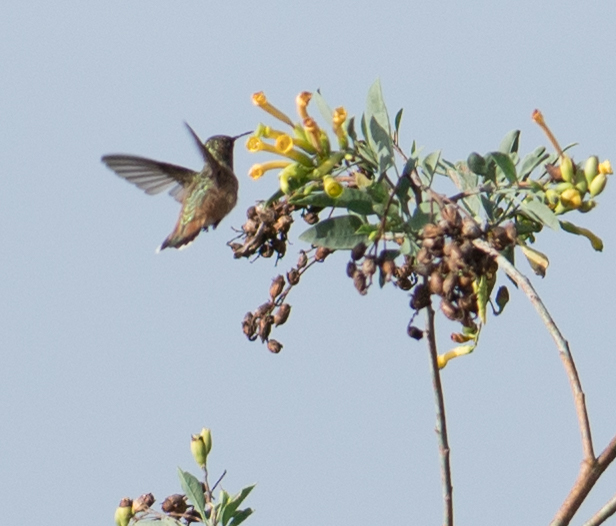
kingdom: Animalia
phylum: Chordata
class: Aves
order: Apodiformes
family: Trochilidae
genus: Selasphorus
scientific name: Selasphorus sasin
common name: Allen's hummingbird
